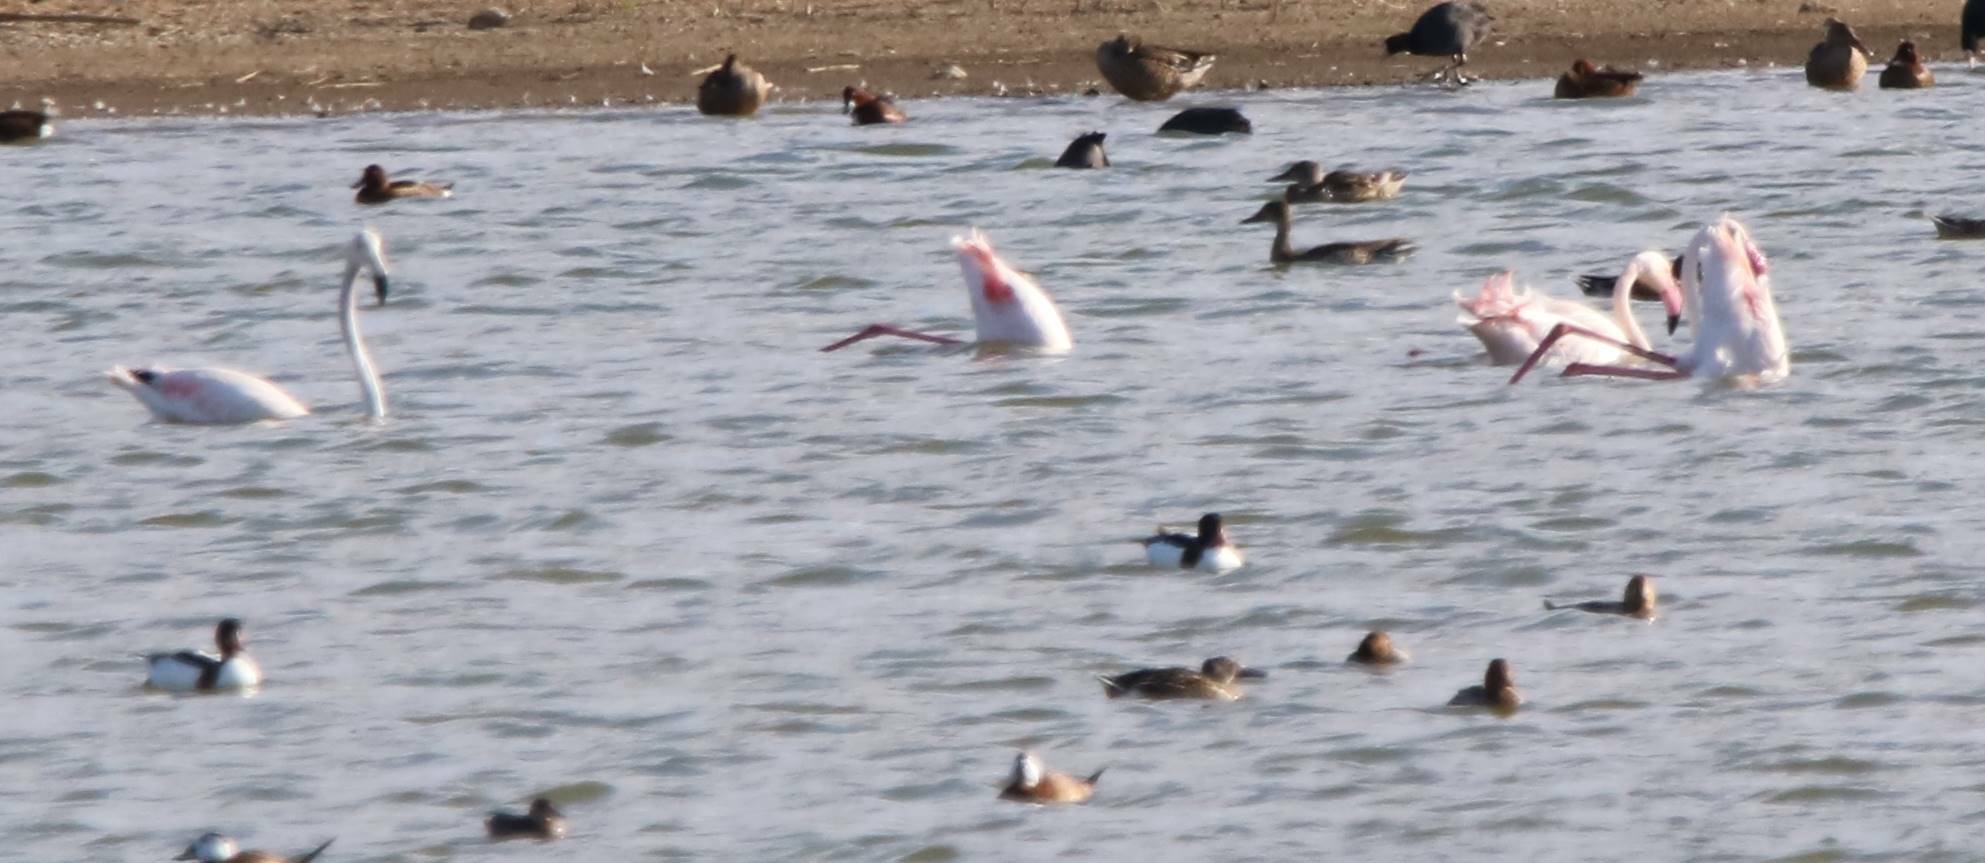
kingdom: Animalia
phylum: Chordata
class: Aves
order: Phoenicopteriformes
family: Phoenicopteridae
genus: Phoenicopterus
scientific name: Phoenicopterus roseus
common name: Greater flamingo
